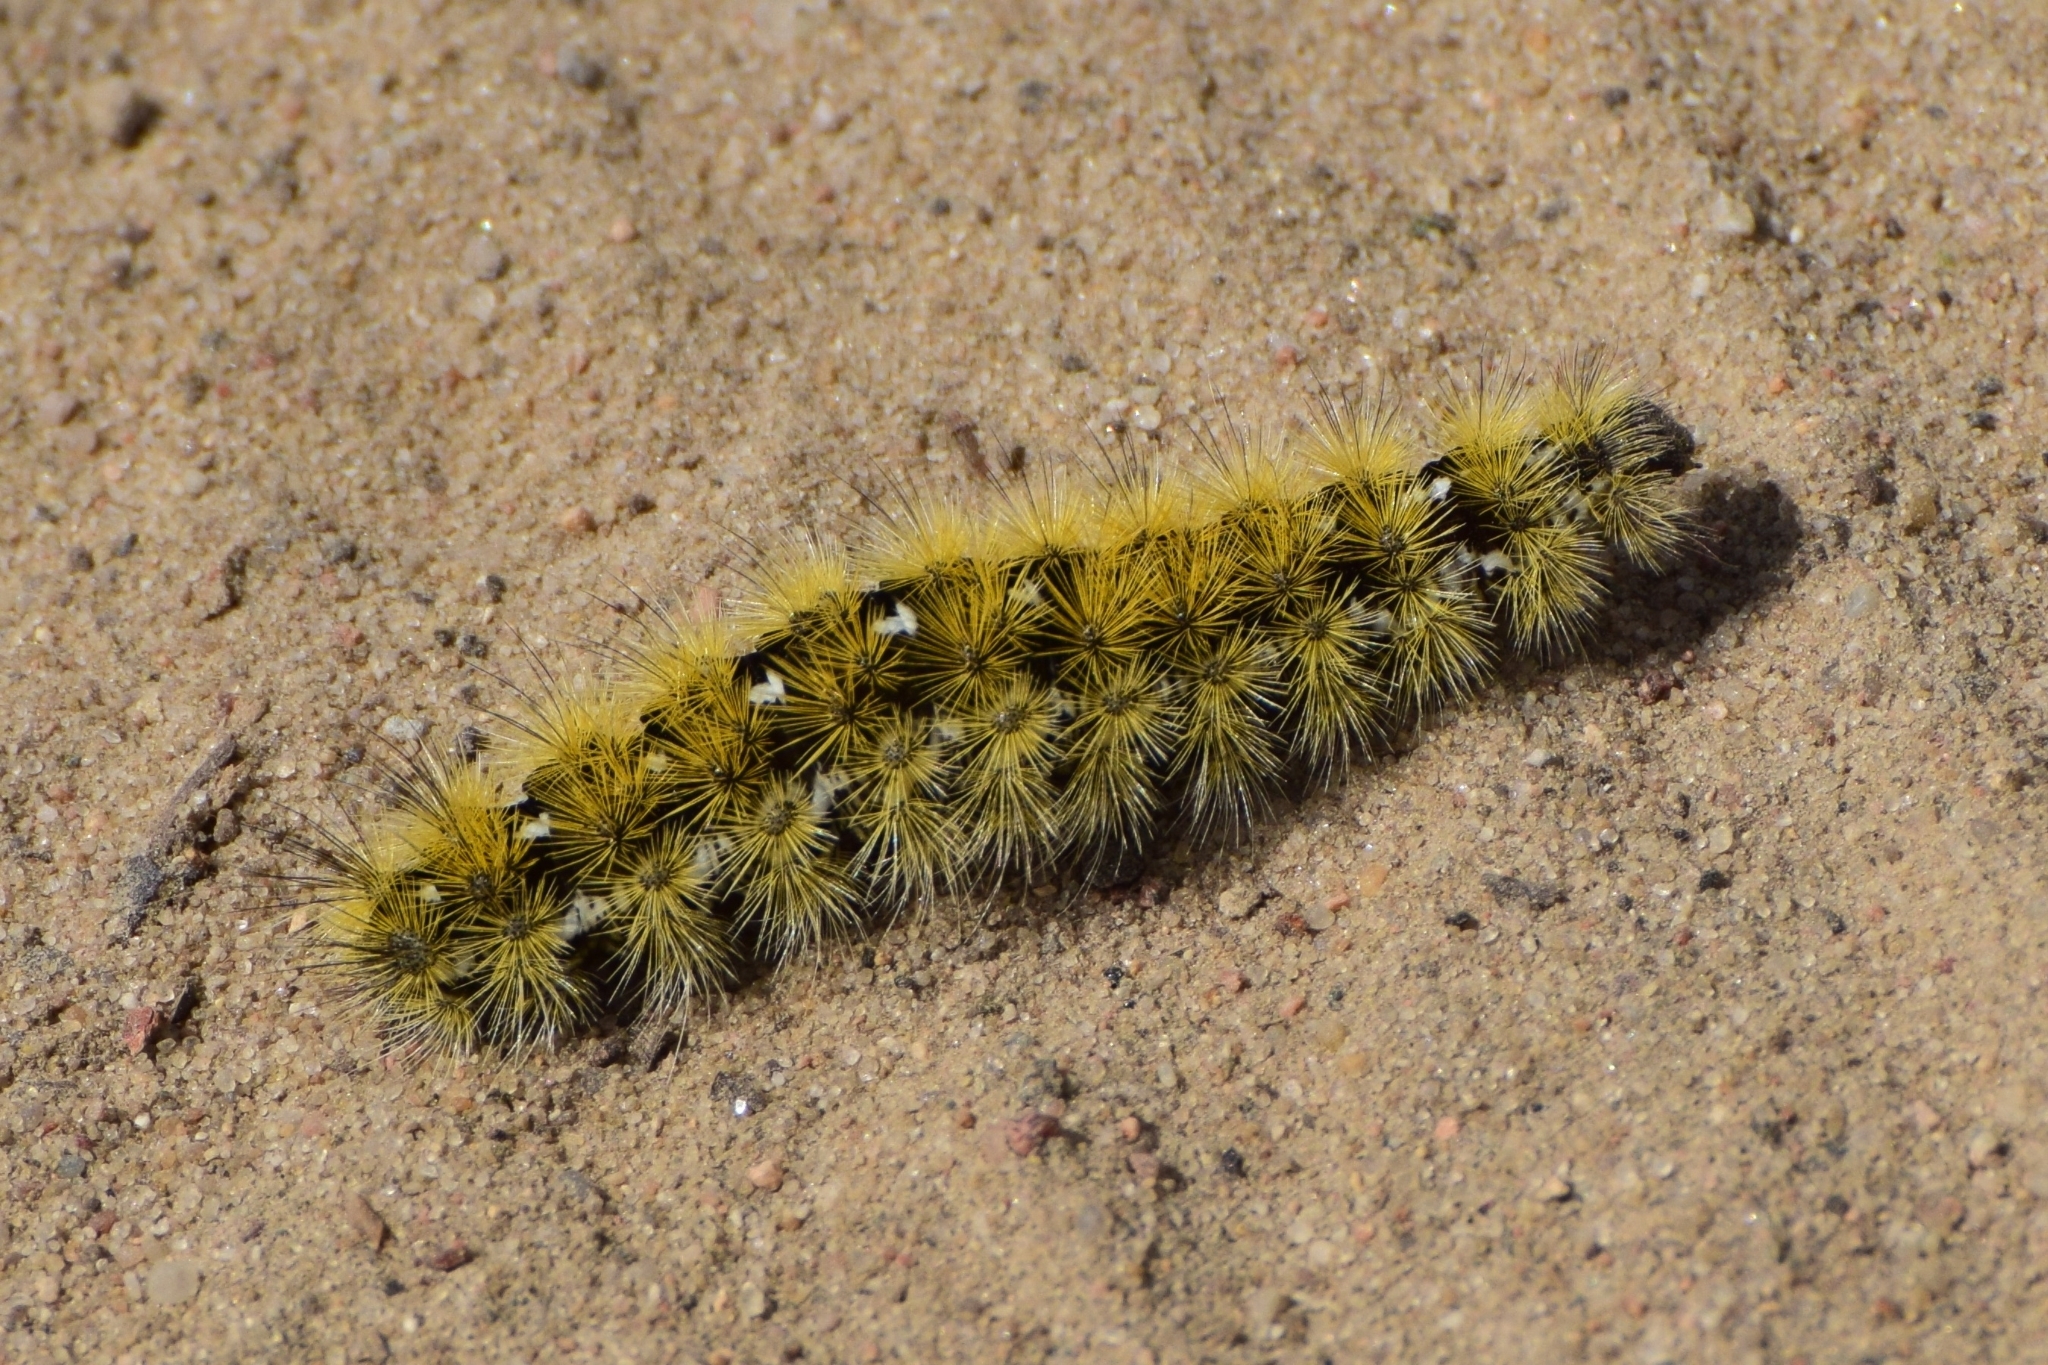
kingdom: Animalia
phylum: Arthropoda
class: Insecta
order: Lepidoptera
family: Erebidae
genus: Rhyparia
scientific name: Rhyparia purpurata
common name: Purple tiger
